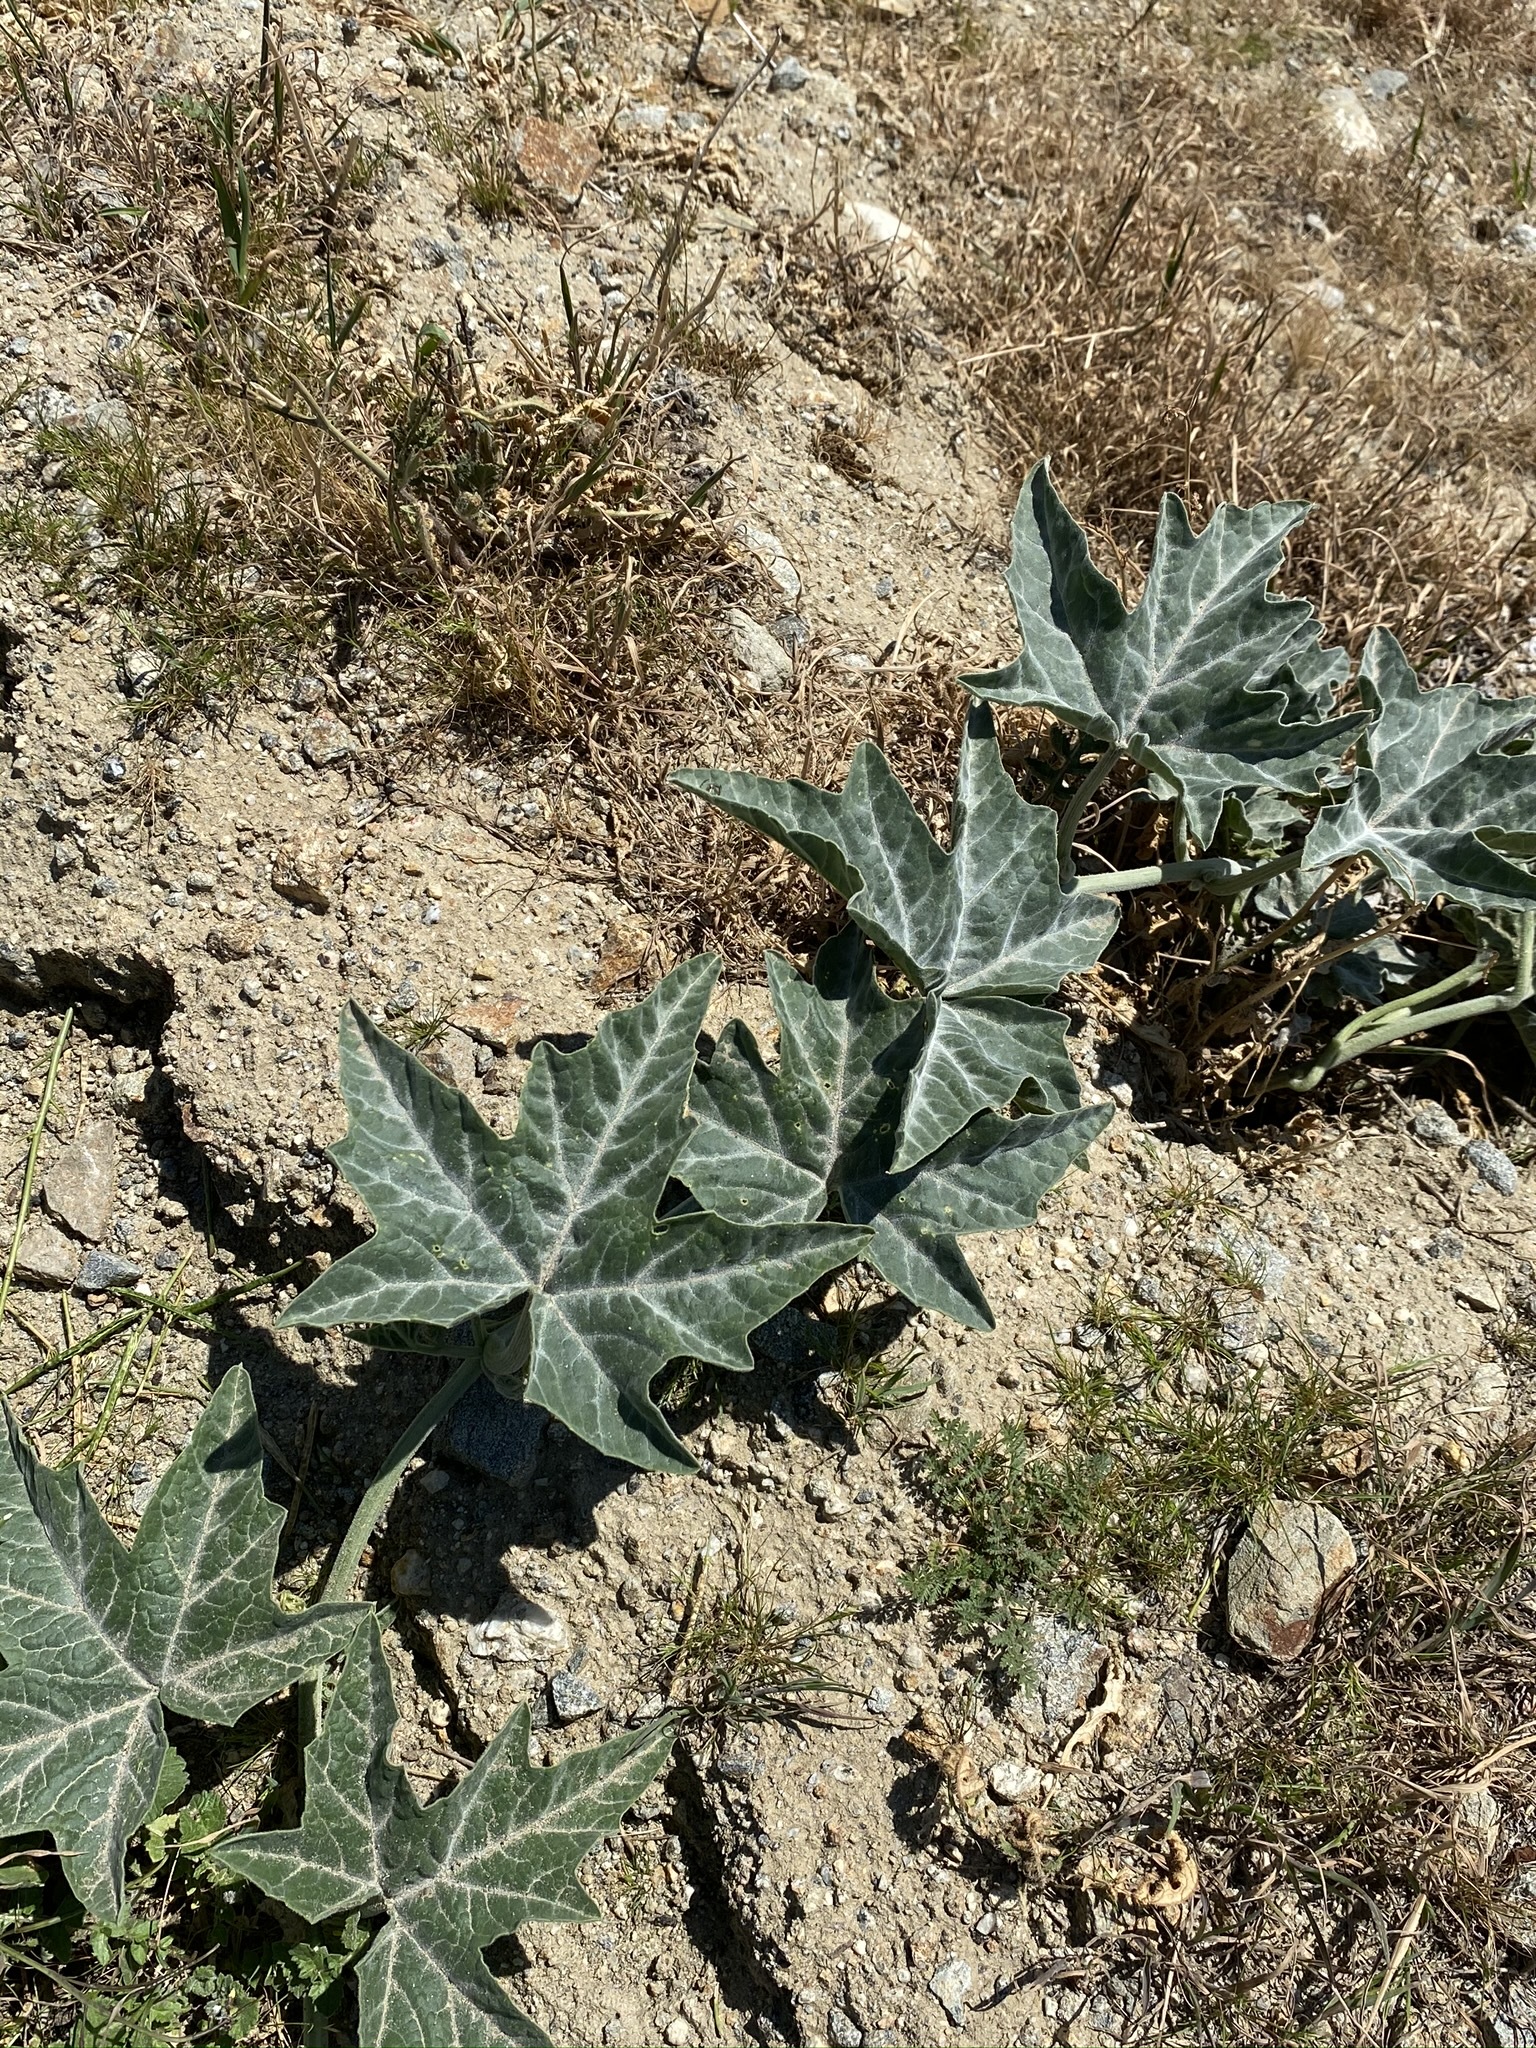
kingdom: Plantae
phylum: Tracheophyta
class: Magnoliopsida
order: Cucurbitales
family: Cucurbitaceae
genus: Cucurbita
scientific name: Cucurbita palmata
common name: Coyote-melon
